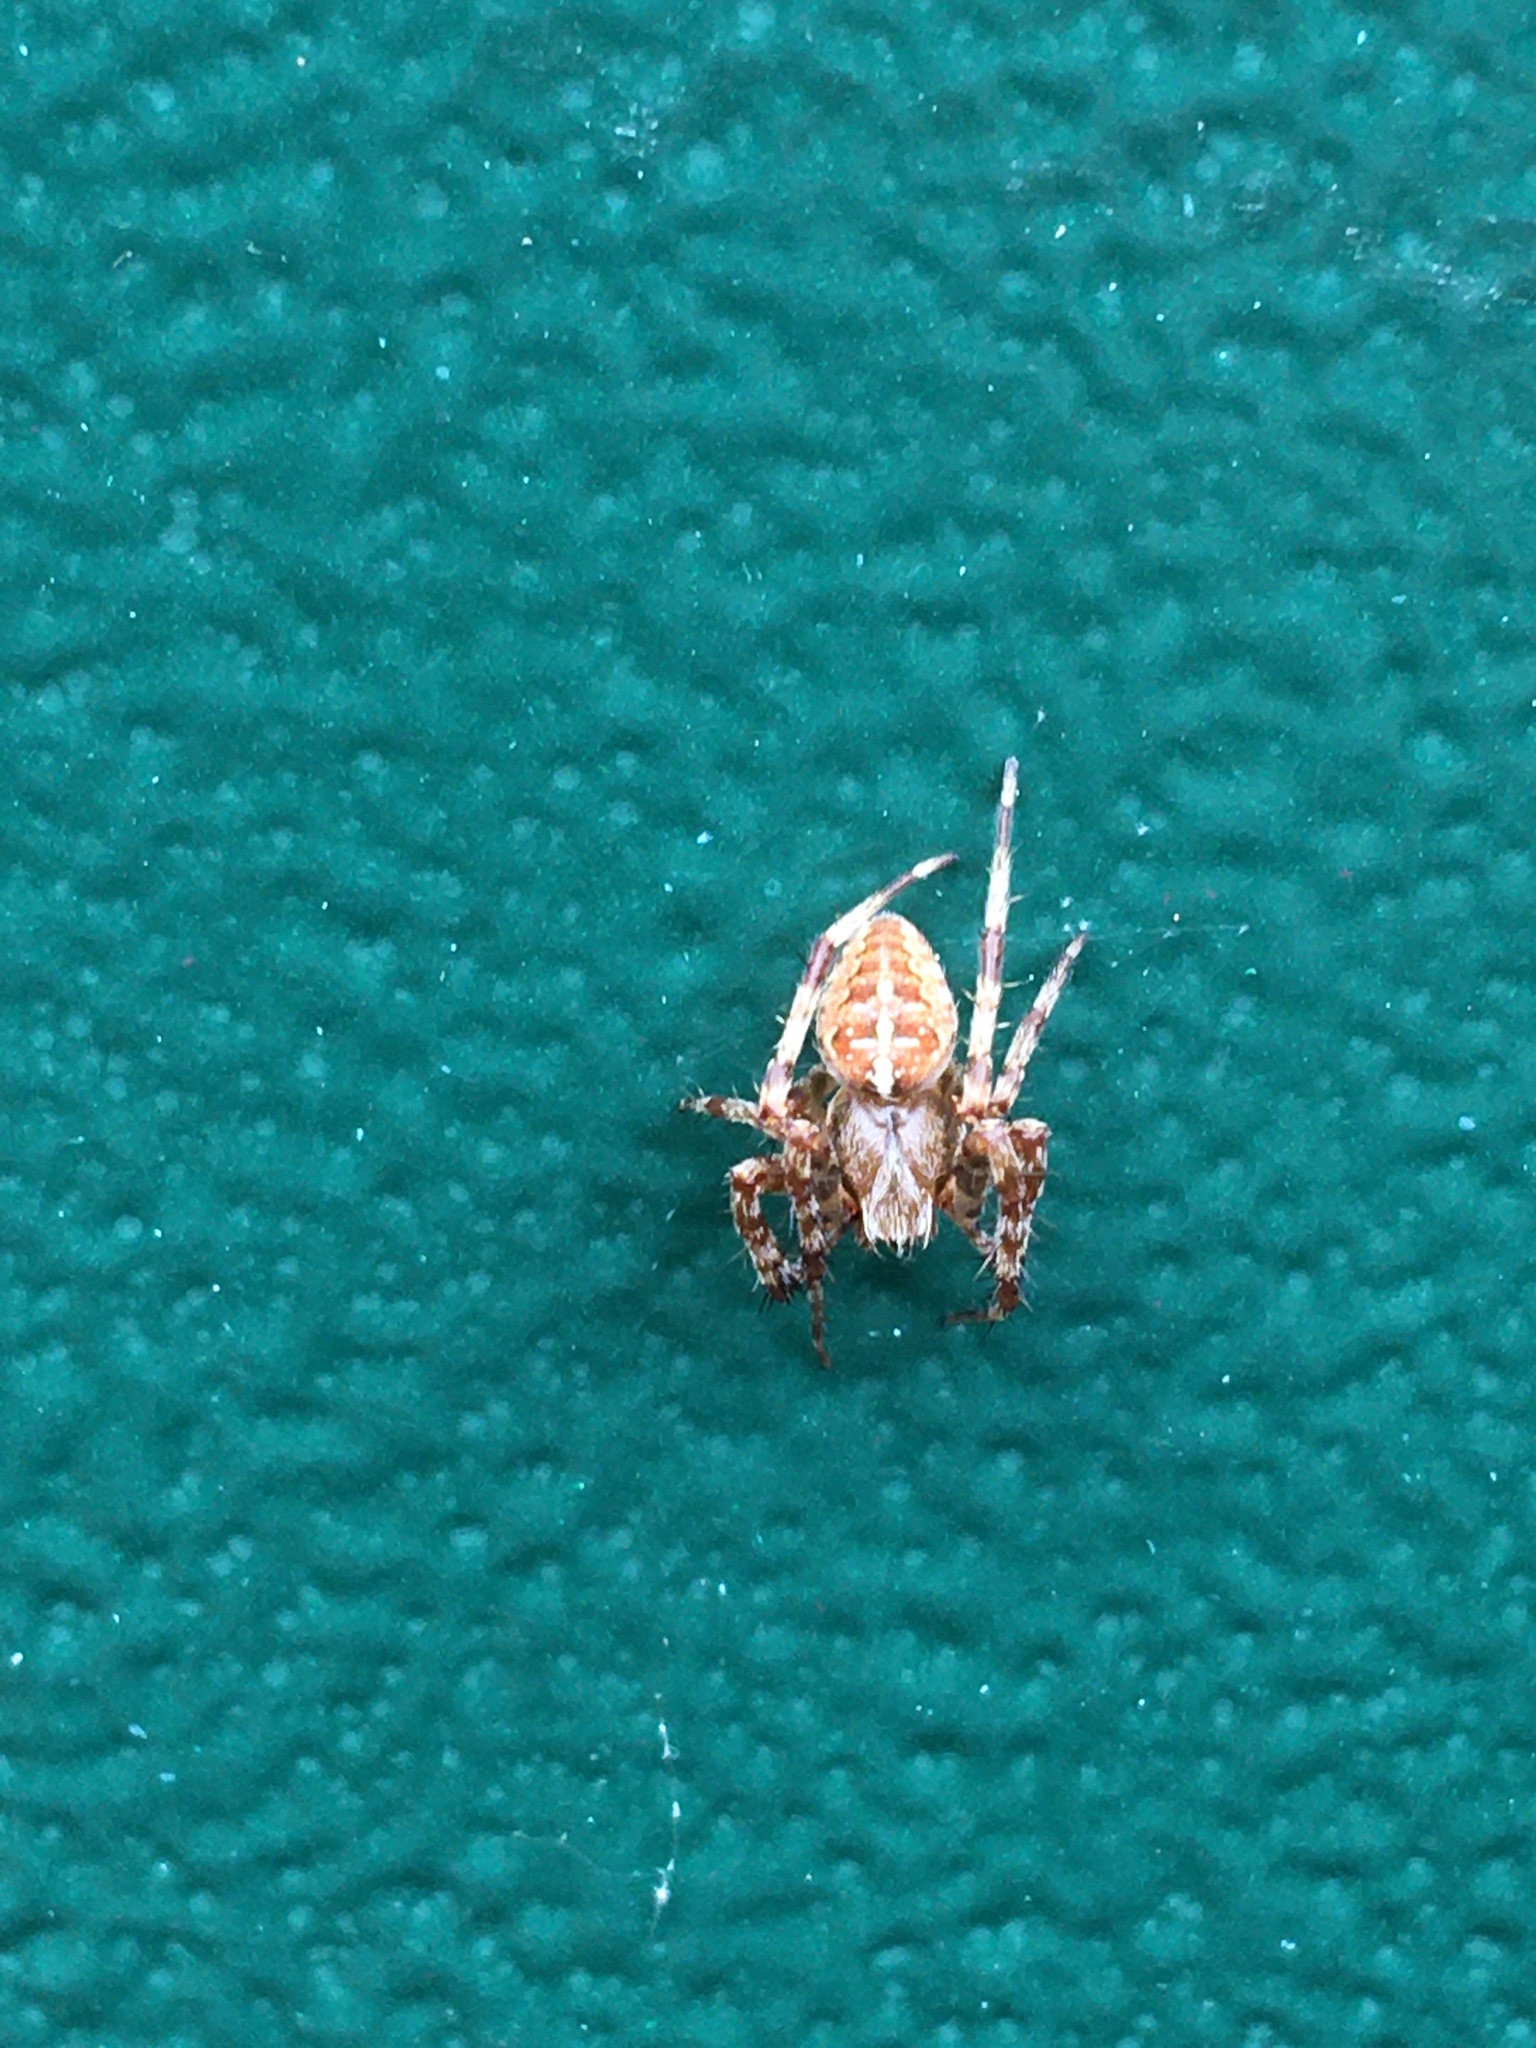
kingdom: Animalia
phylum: Arthropoda
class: Arachnida
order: Araneae
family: Araneidae
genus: Araneus
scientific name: Araneus diadematus
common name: Cross orbweaver
